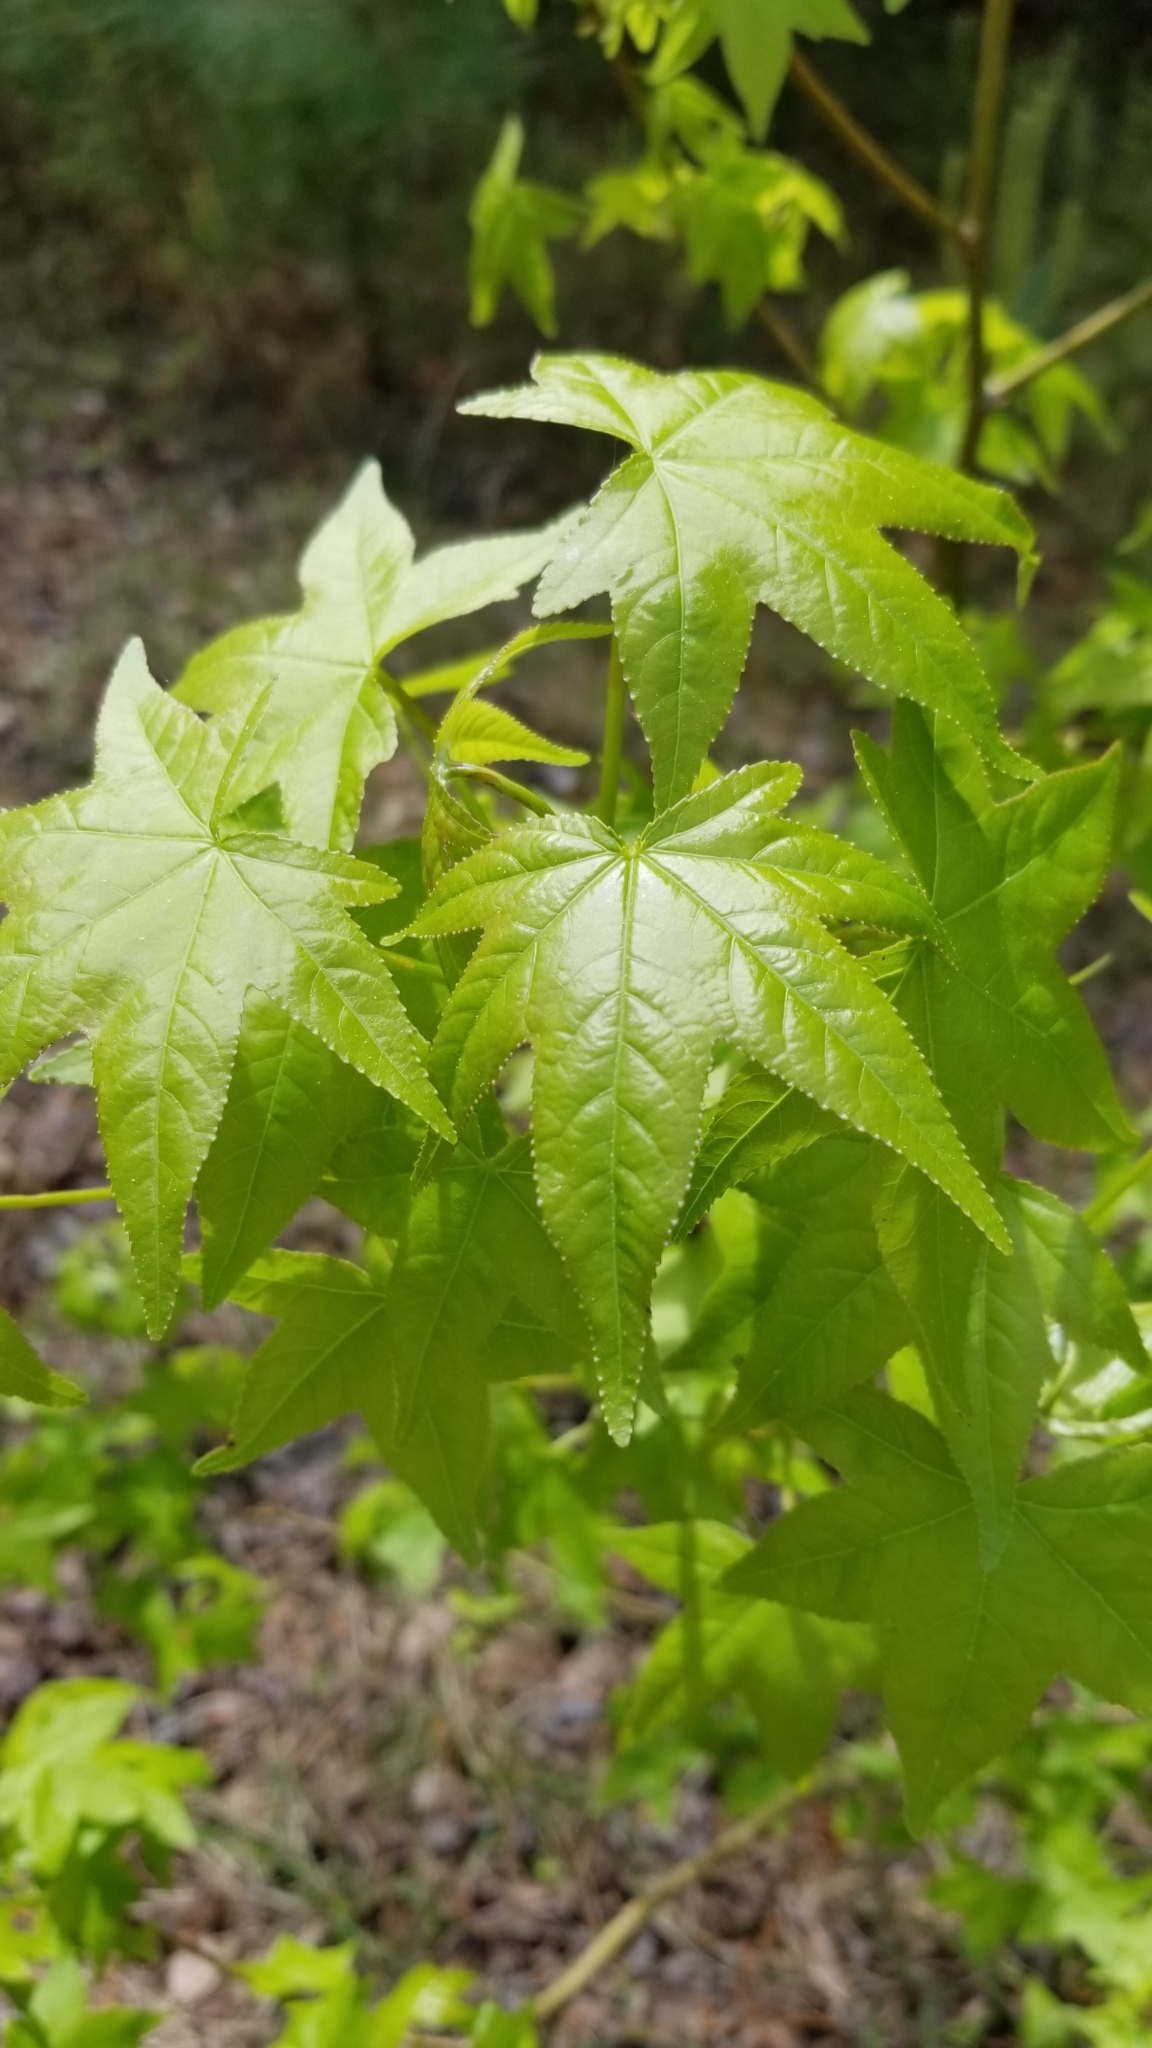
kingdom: Plantae
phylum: Tracheophyta
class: Magnoliopsida
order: Saxifragales
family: Altingiaceae
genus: Liquidambar
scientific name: Liquidambar styraciflua
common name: Sweet gum
